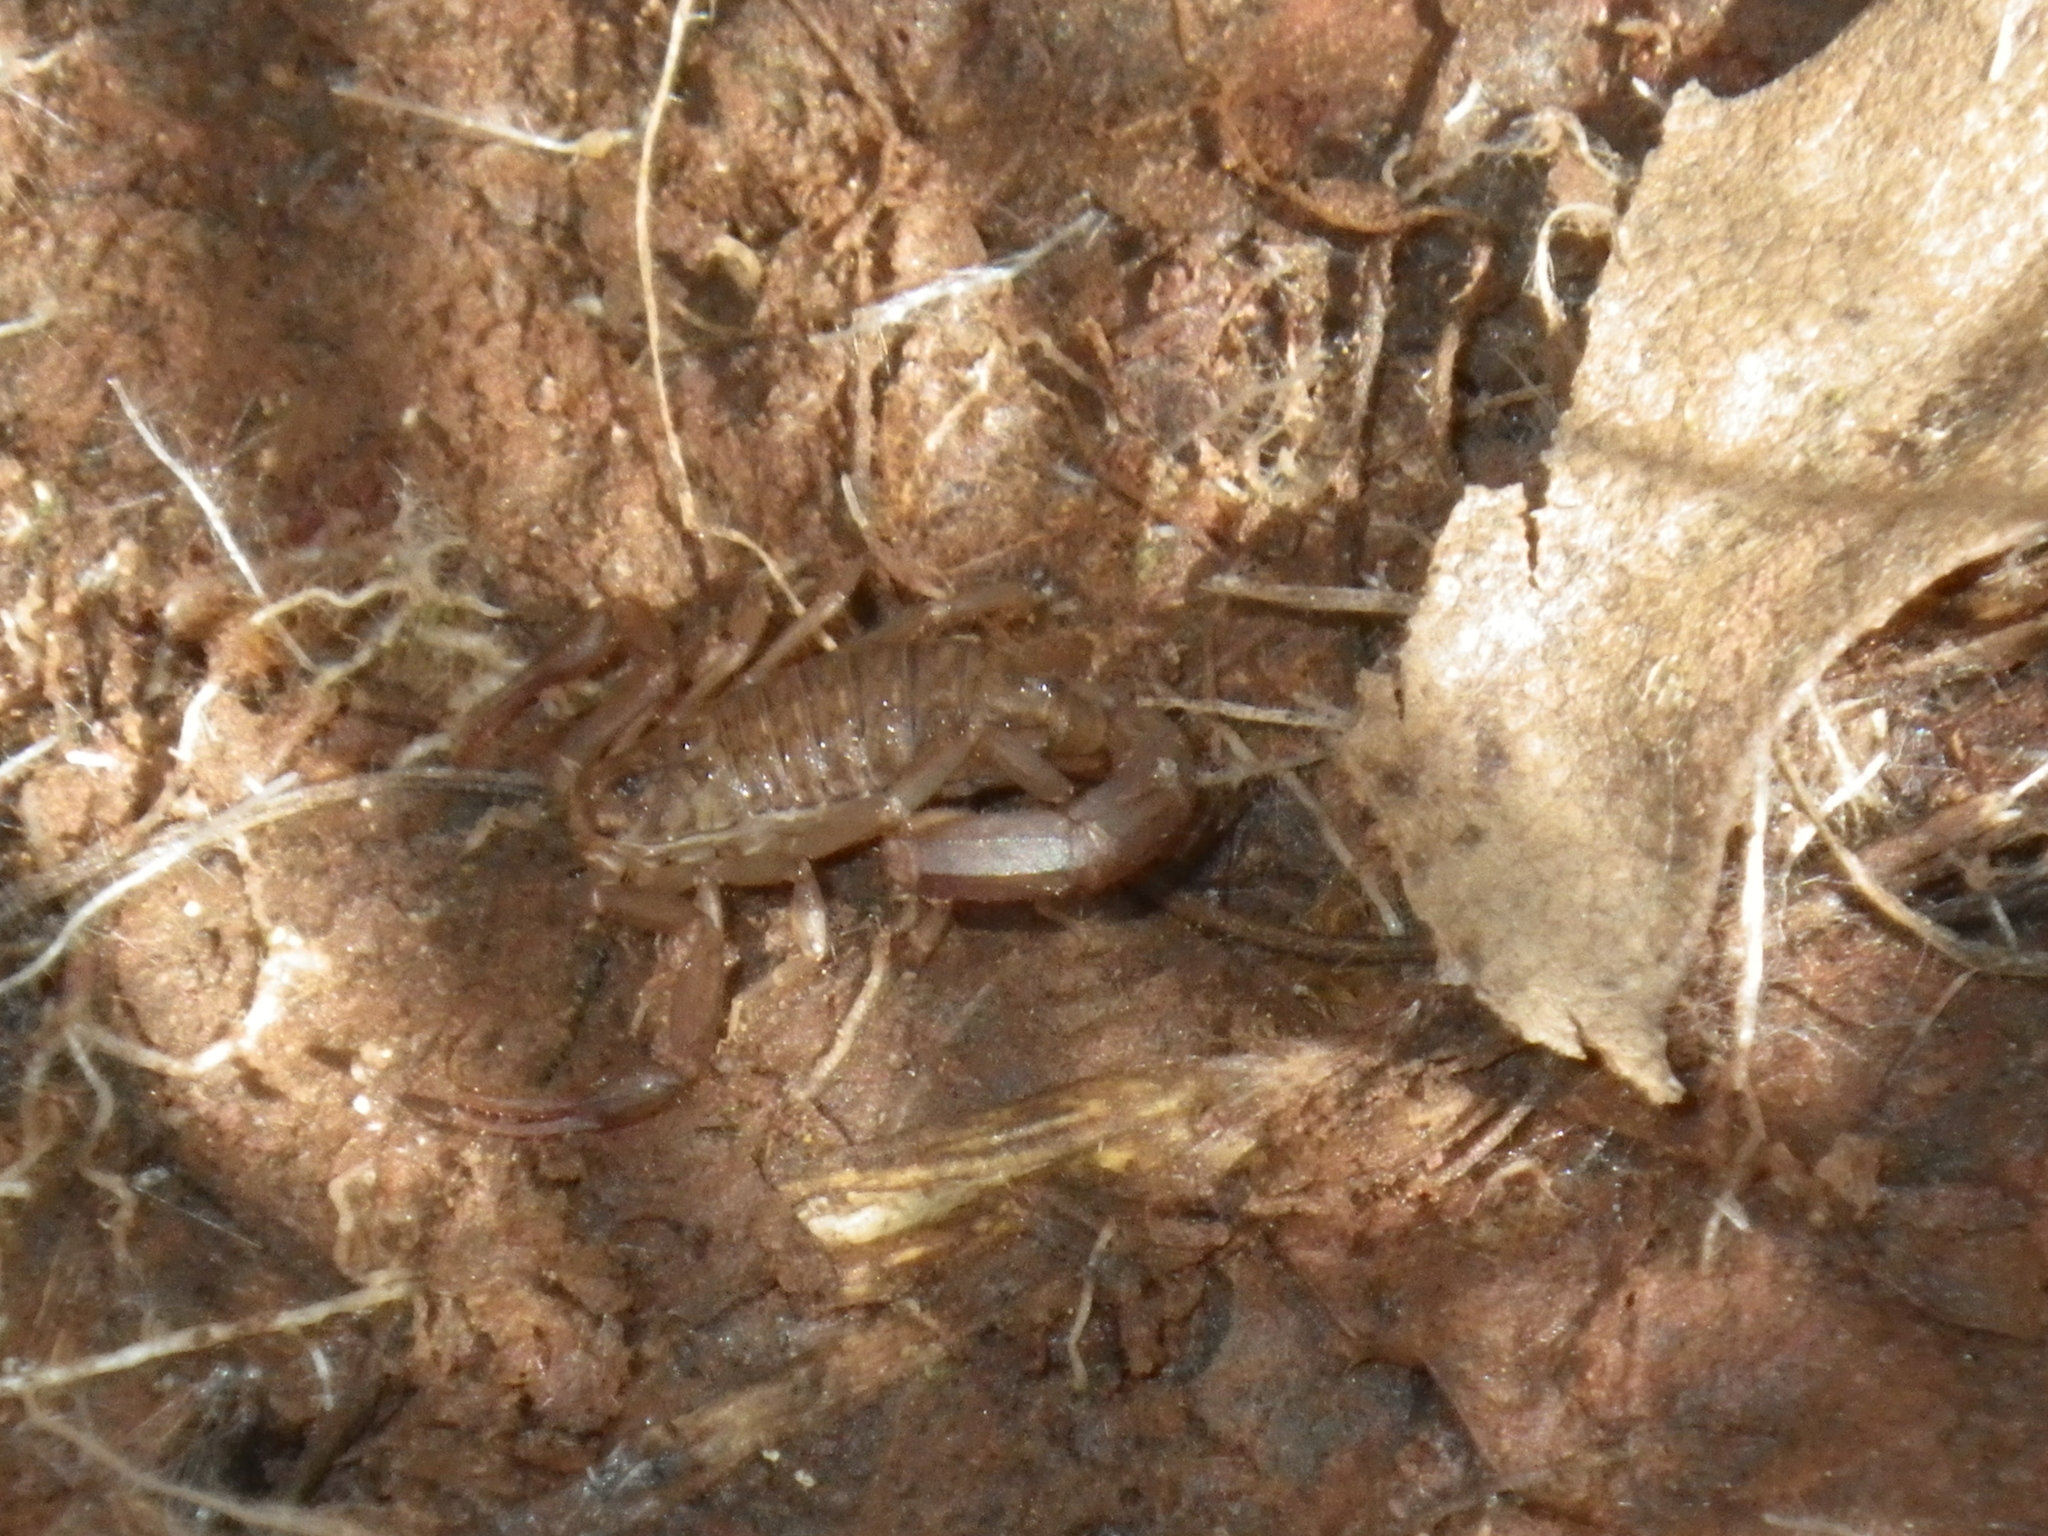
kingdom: Animalia
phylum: Arthropoda
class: Arachnida
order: Scorpiones
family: Vaejovidae
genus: Serradigitus
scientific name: Serradigitus gertschi
